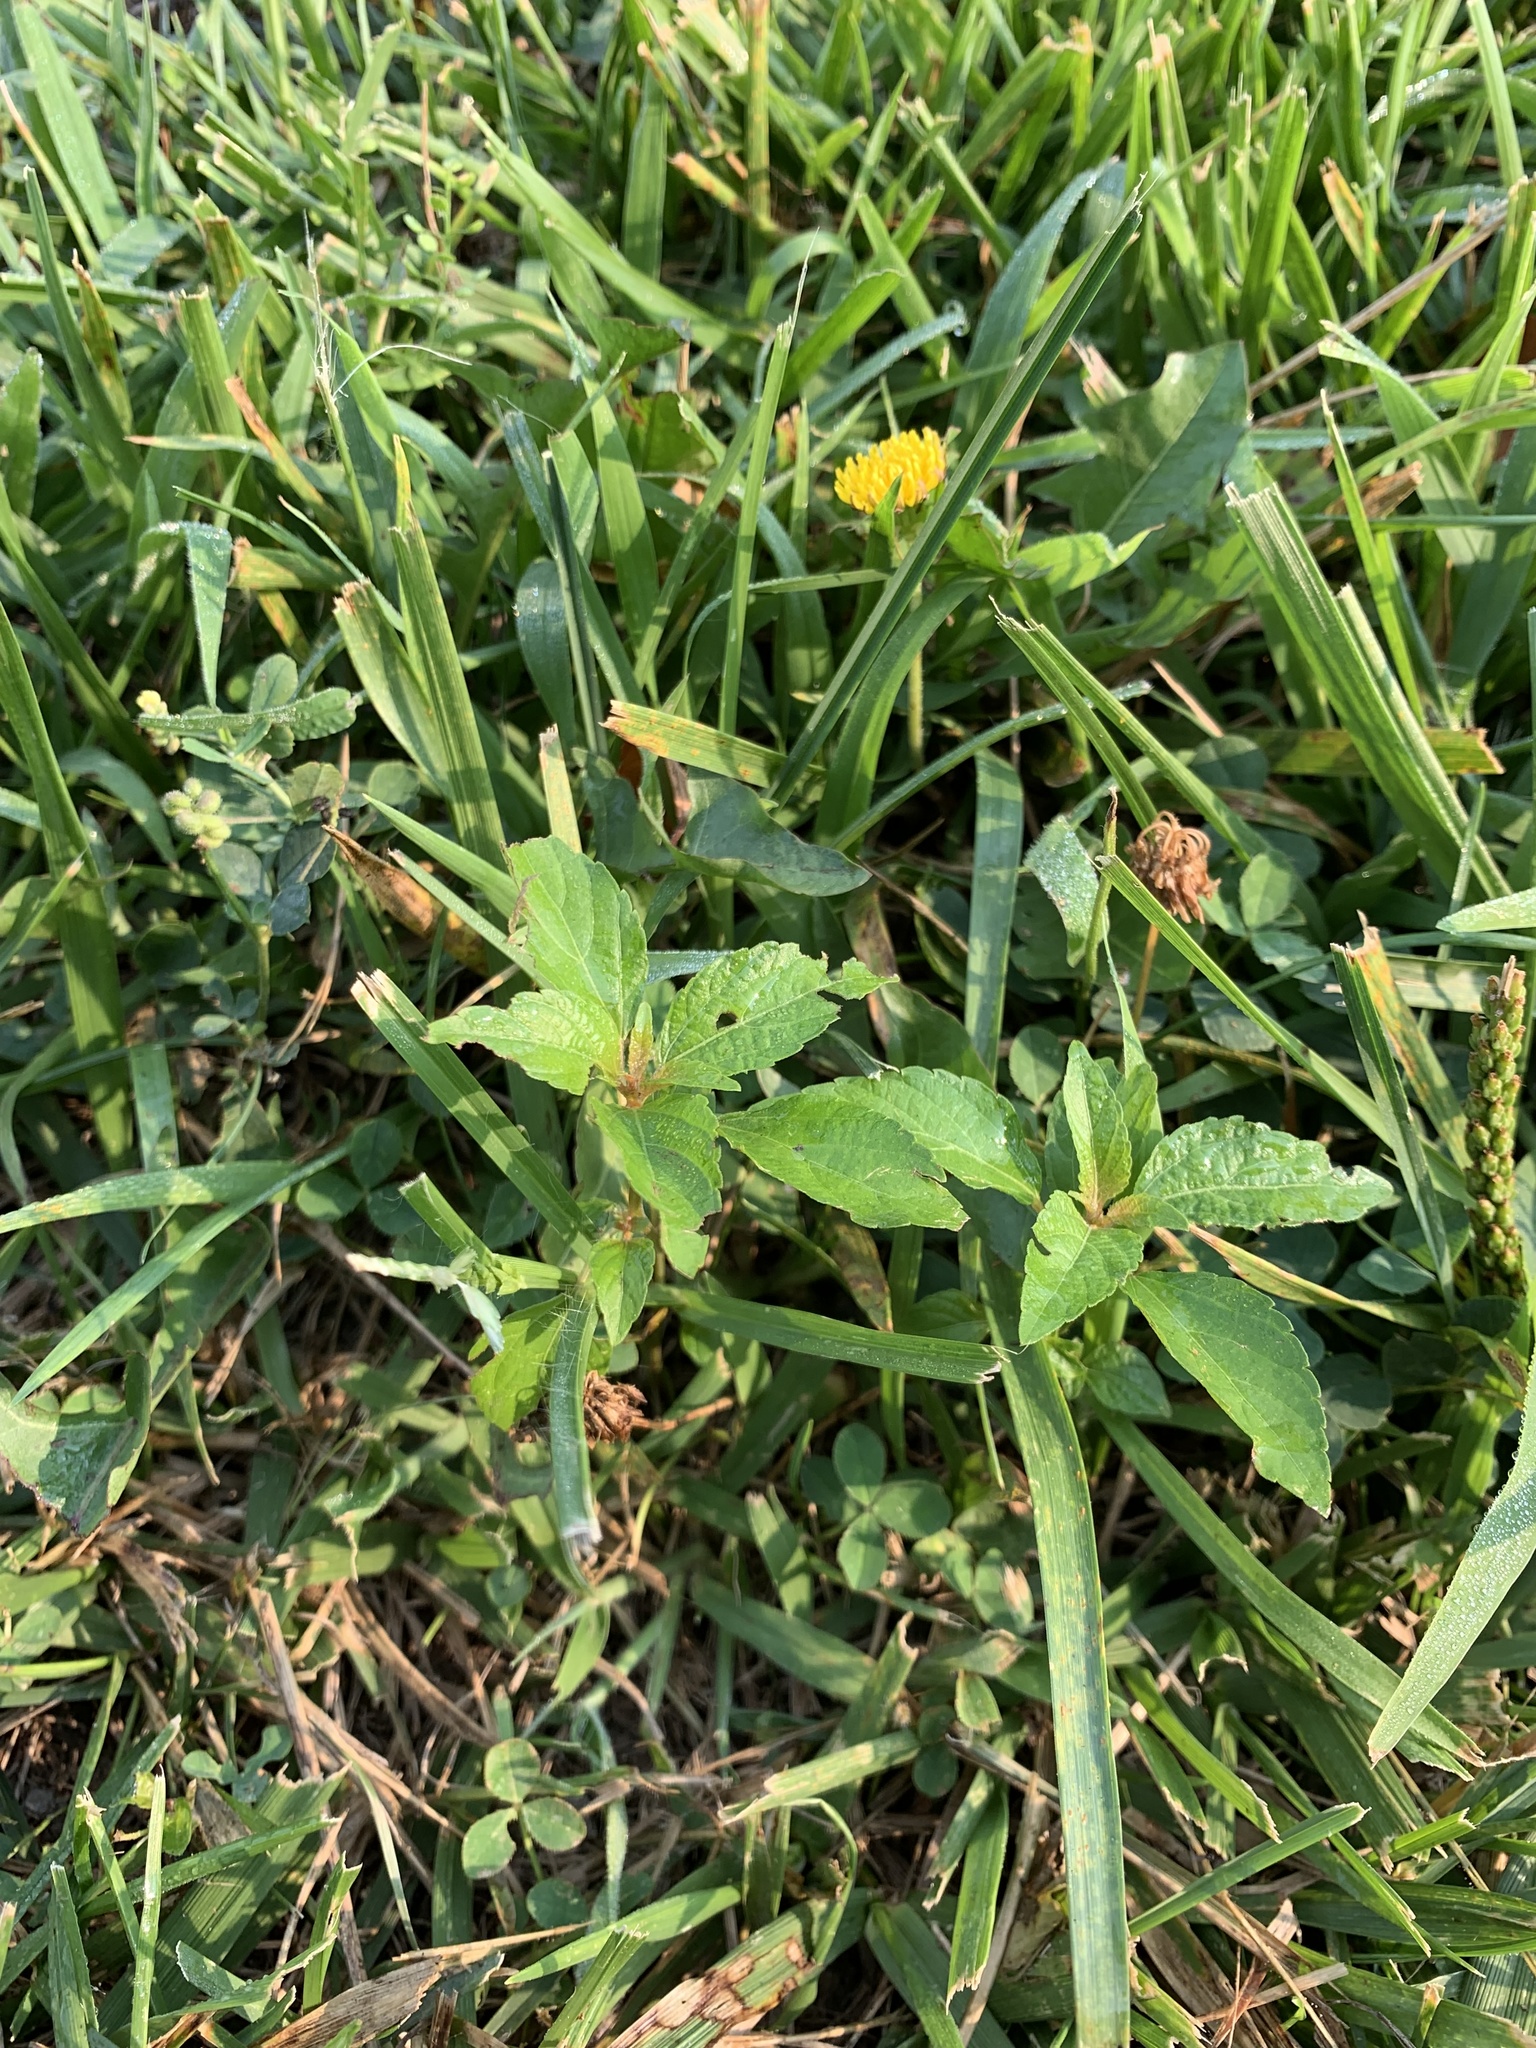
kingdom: Plantae
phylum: Tracheophyta
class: Magnoliopsida
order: Malpighiales
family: Euphorbiaceae
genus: Acalypha
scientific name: Acalypha rhomboidea
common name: Rhombic copperleaf
